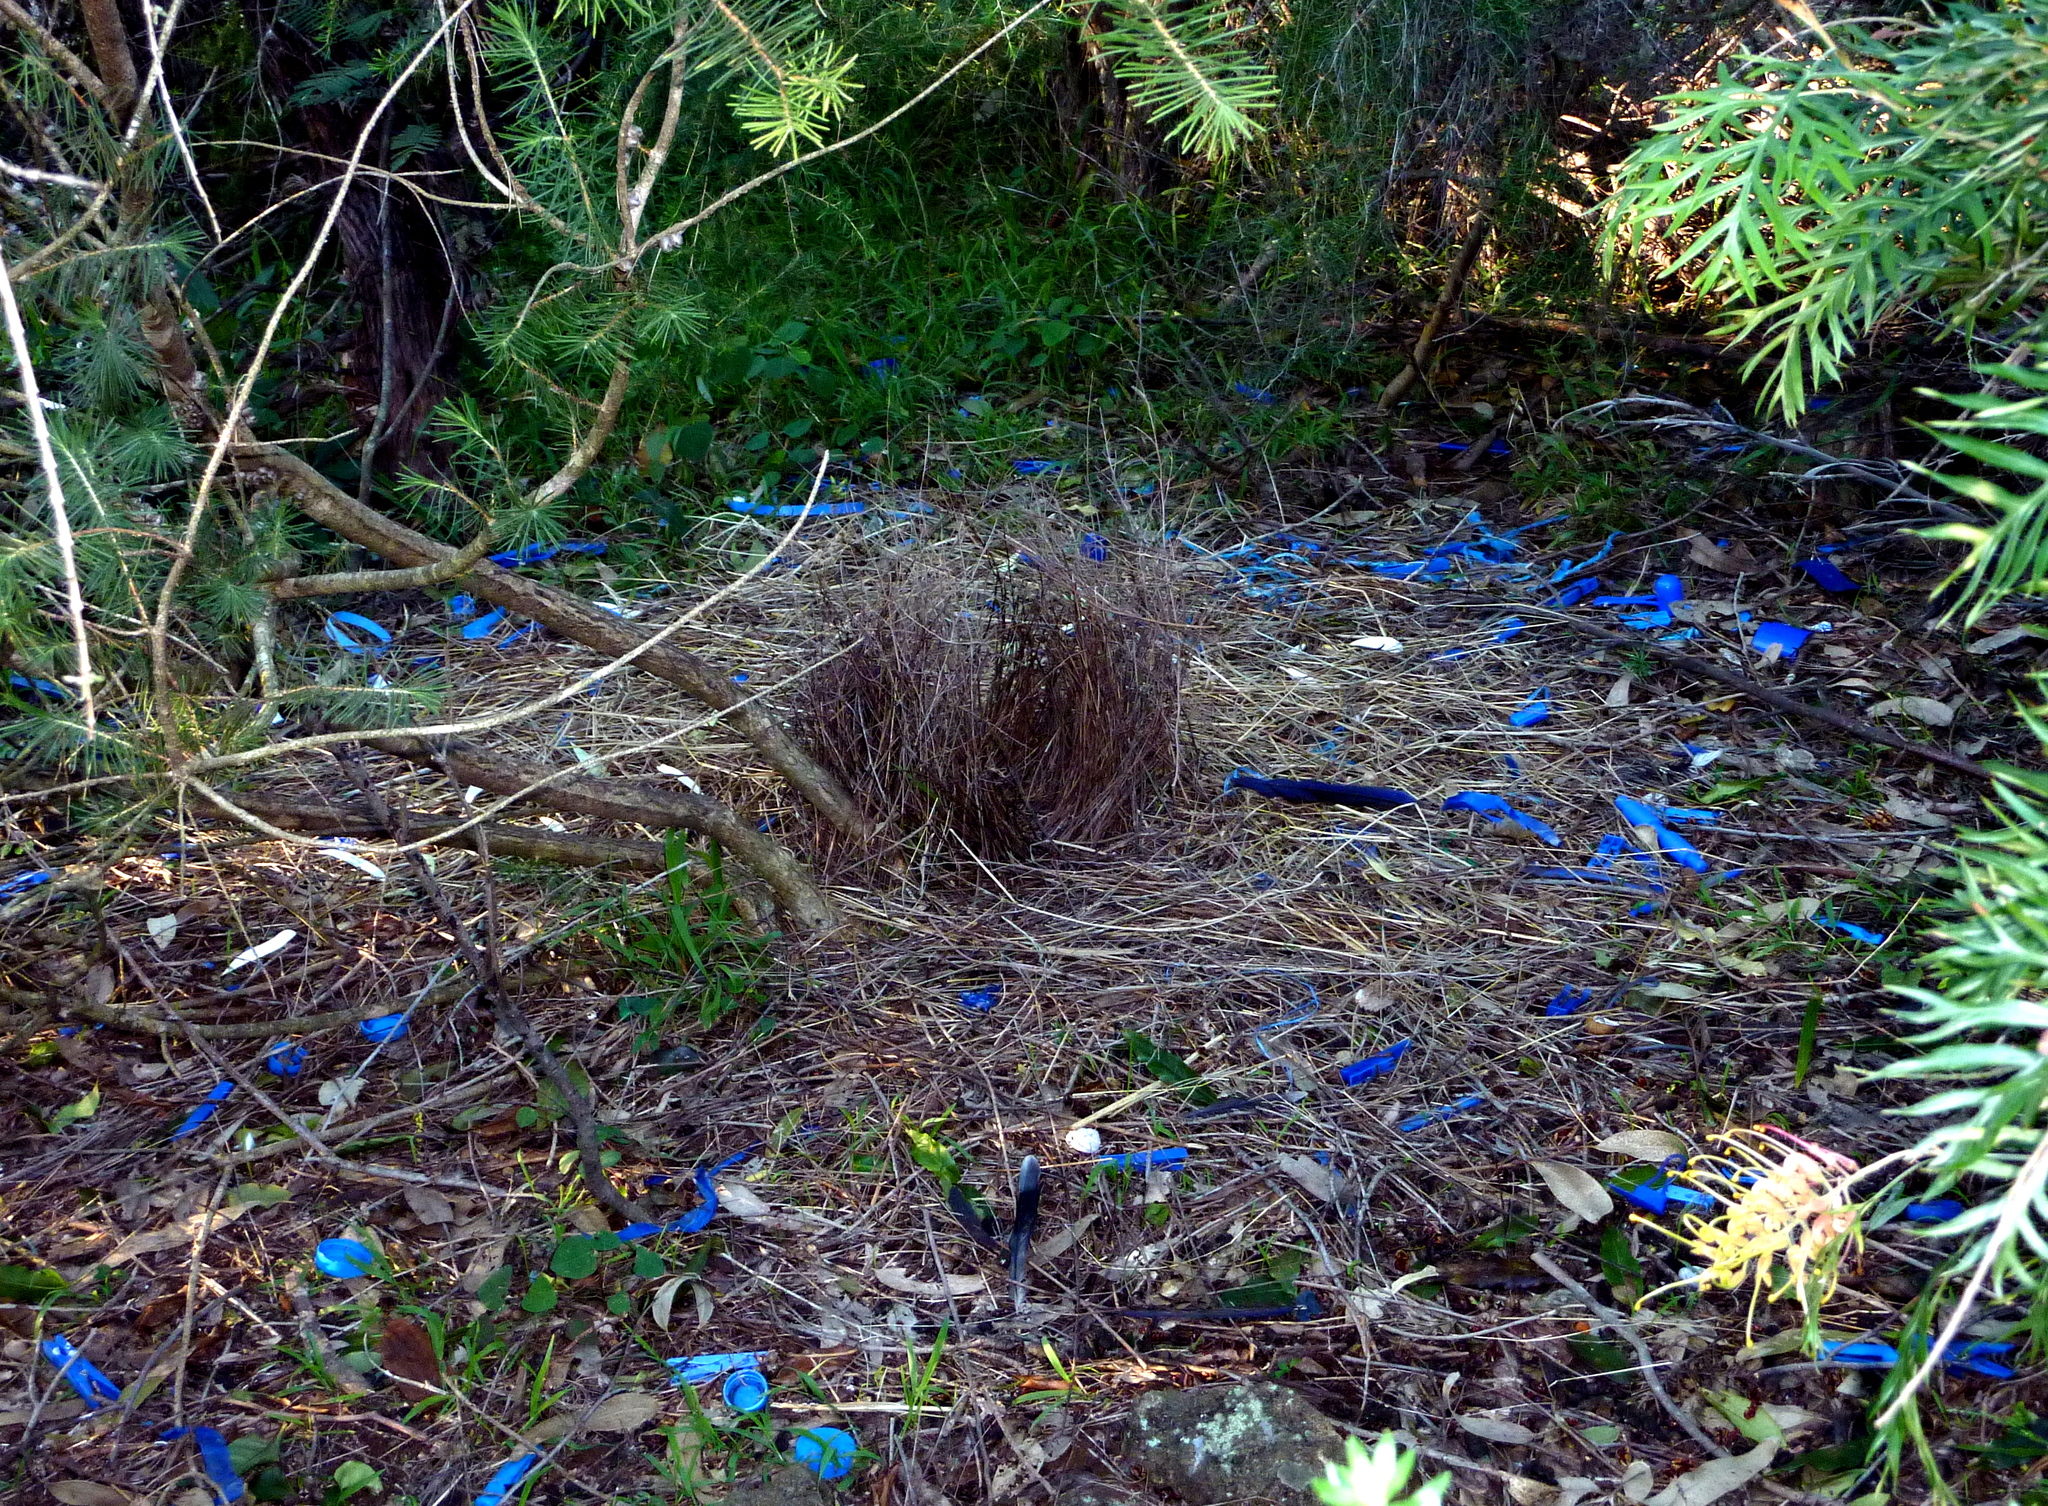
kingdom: Animalia
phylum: Chordata
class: Aves
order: Passeriformes
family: Ptilonorhynchidae
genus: Ptilonorhynchus
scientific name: Ptilonorhynchus violaceus
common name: Satin bowerbird
